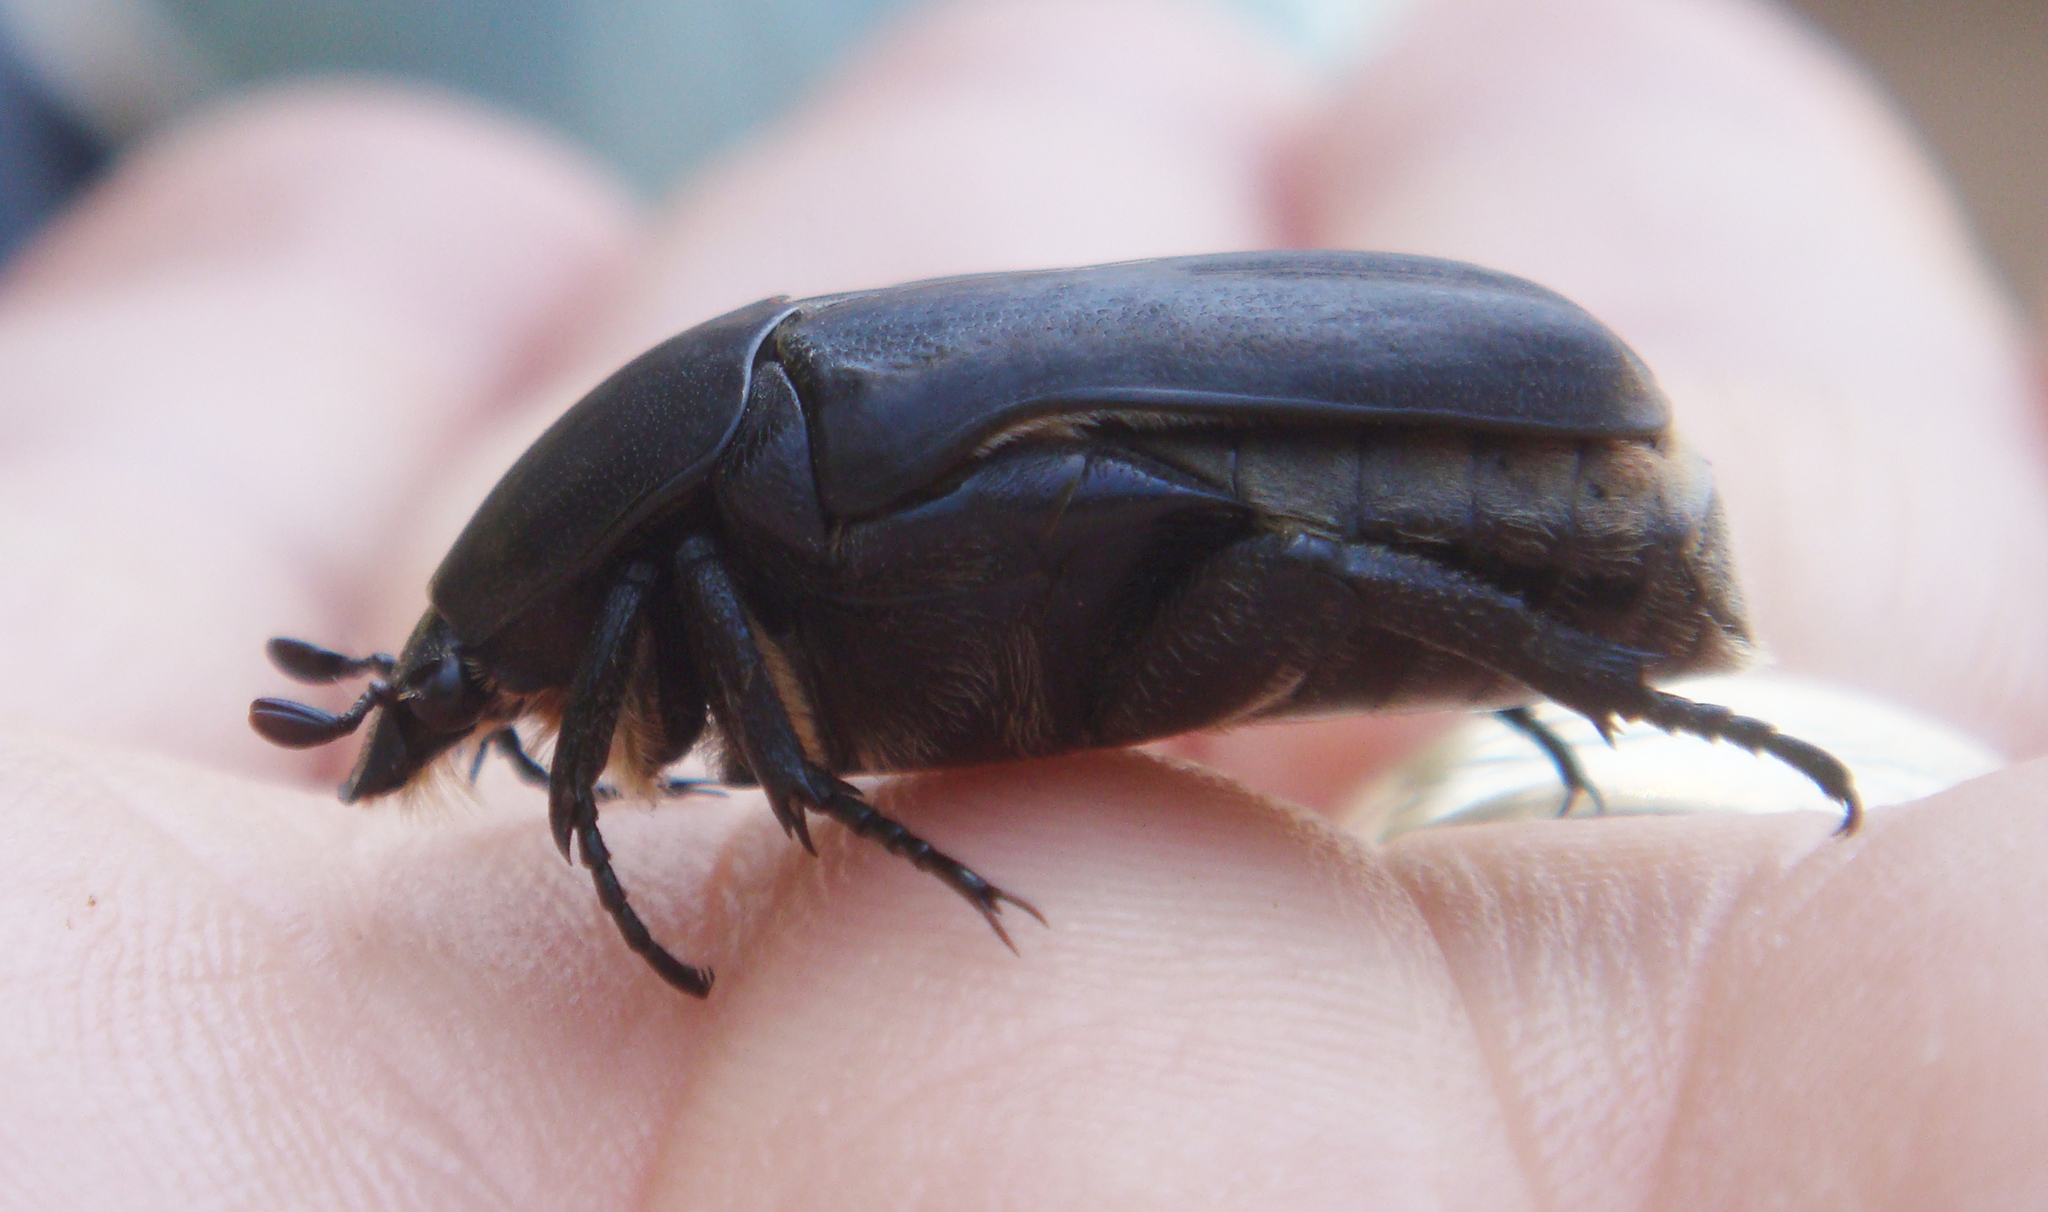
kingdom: Animalia
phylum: Arthropoda
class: Insecta
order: Coleoptera
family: Scarabaeidae
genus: Protaetia
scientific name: Protaetia opaca
